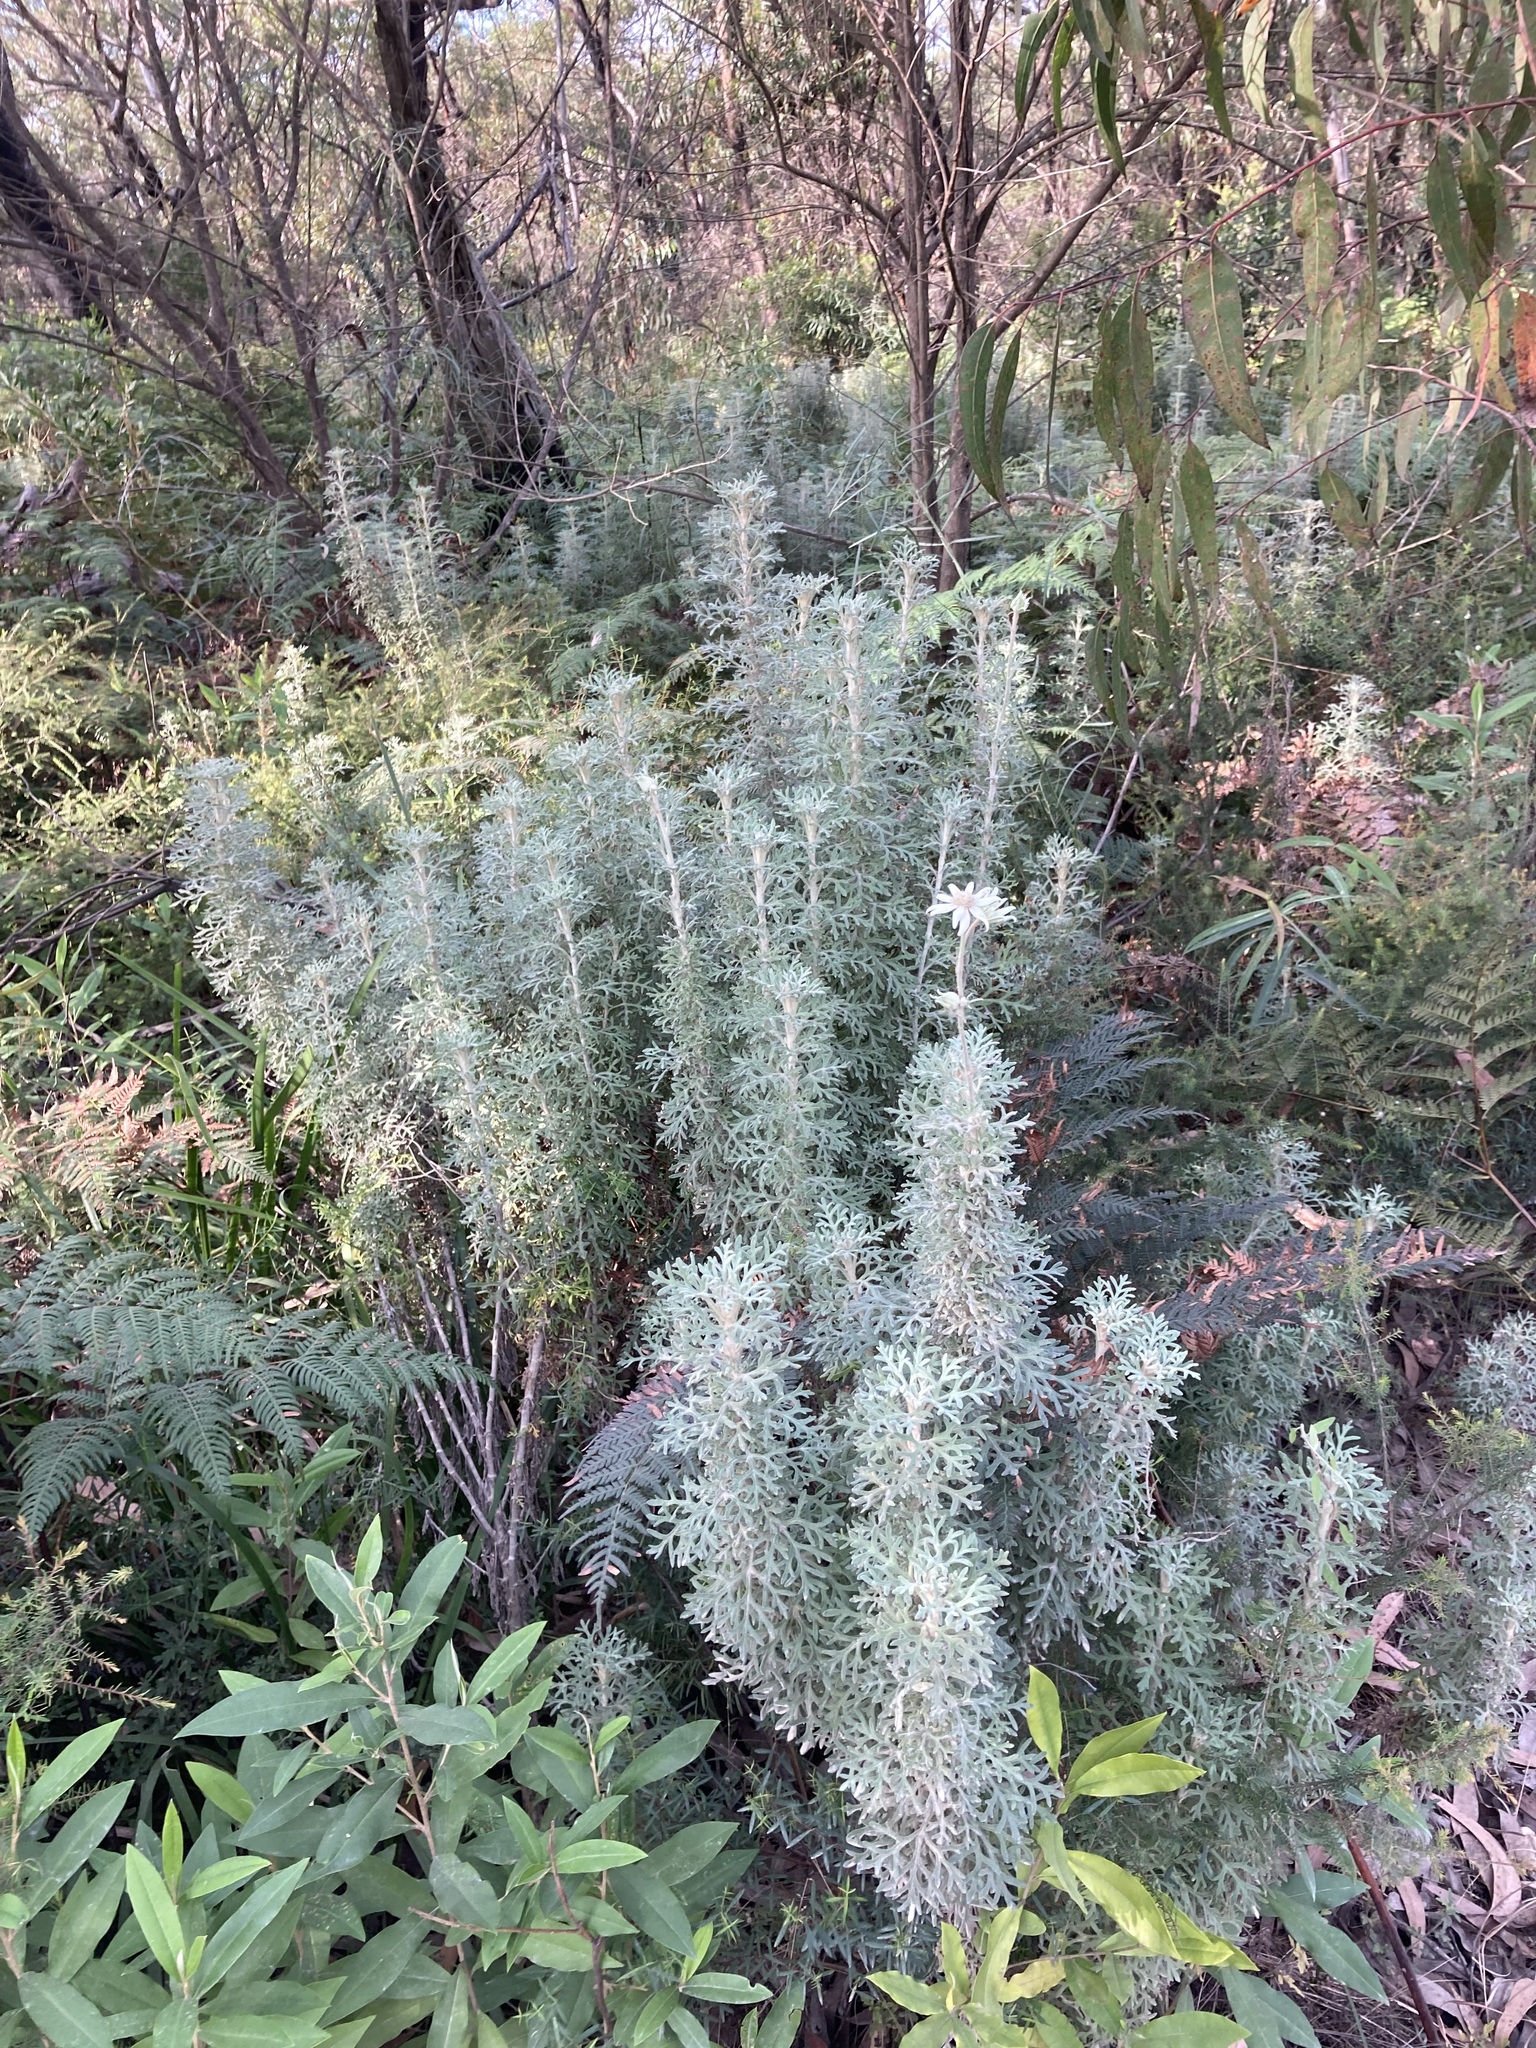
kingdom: Plantae
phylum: Tracheophyta
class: Magnoliopsida
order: Apiales
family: Apiaceae
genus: Actinotus
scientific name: Actinotus helianthi
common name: Flannel-flower
